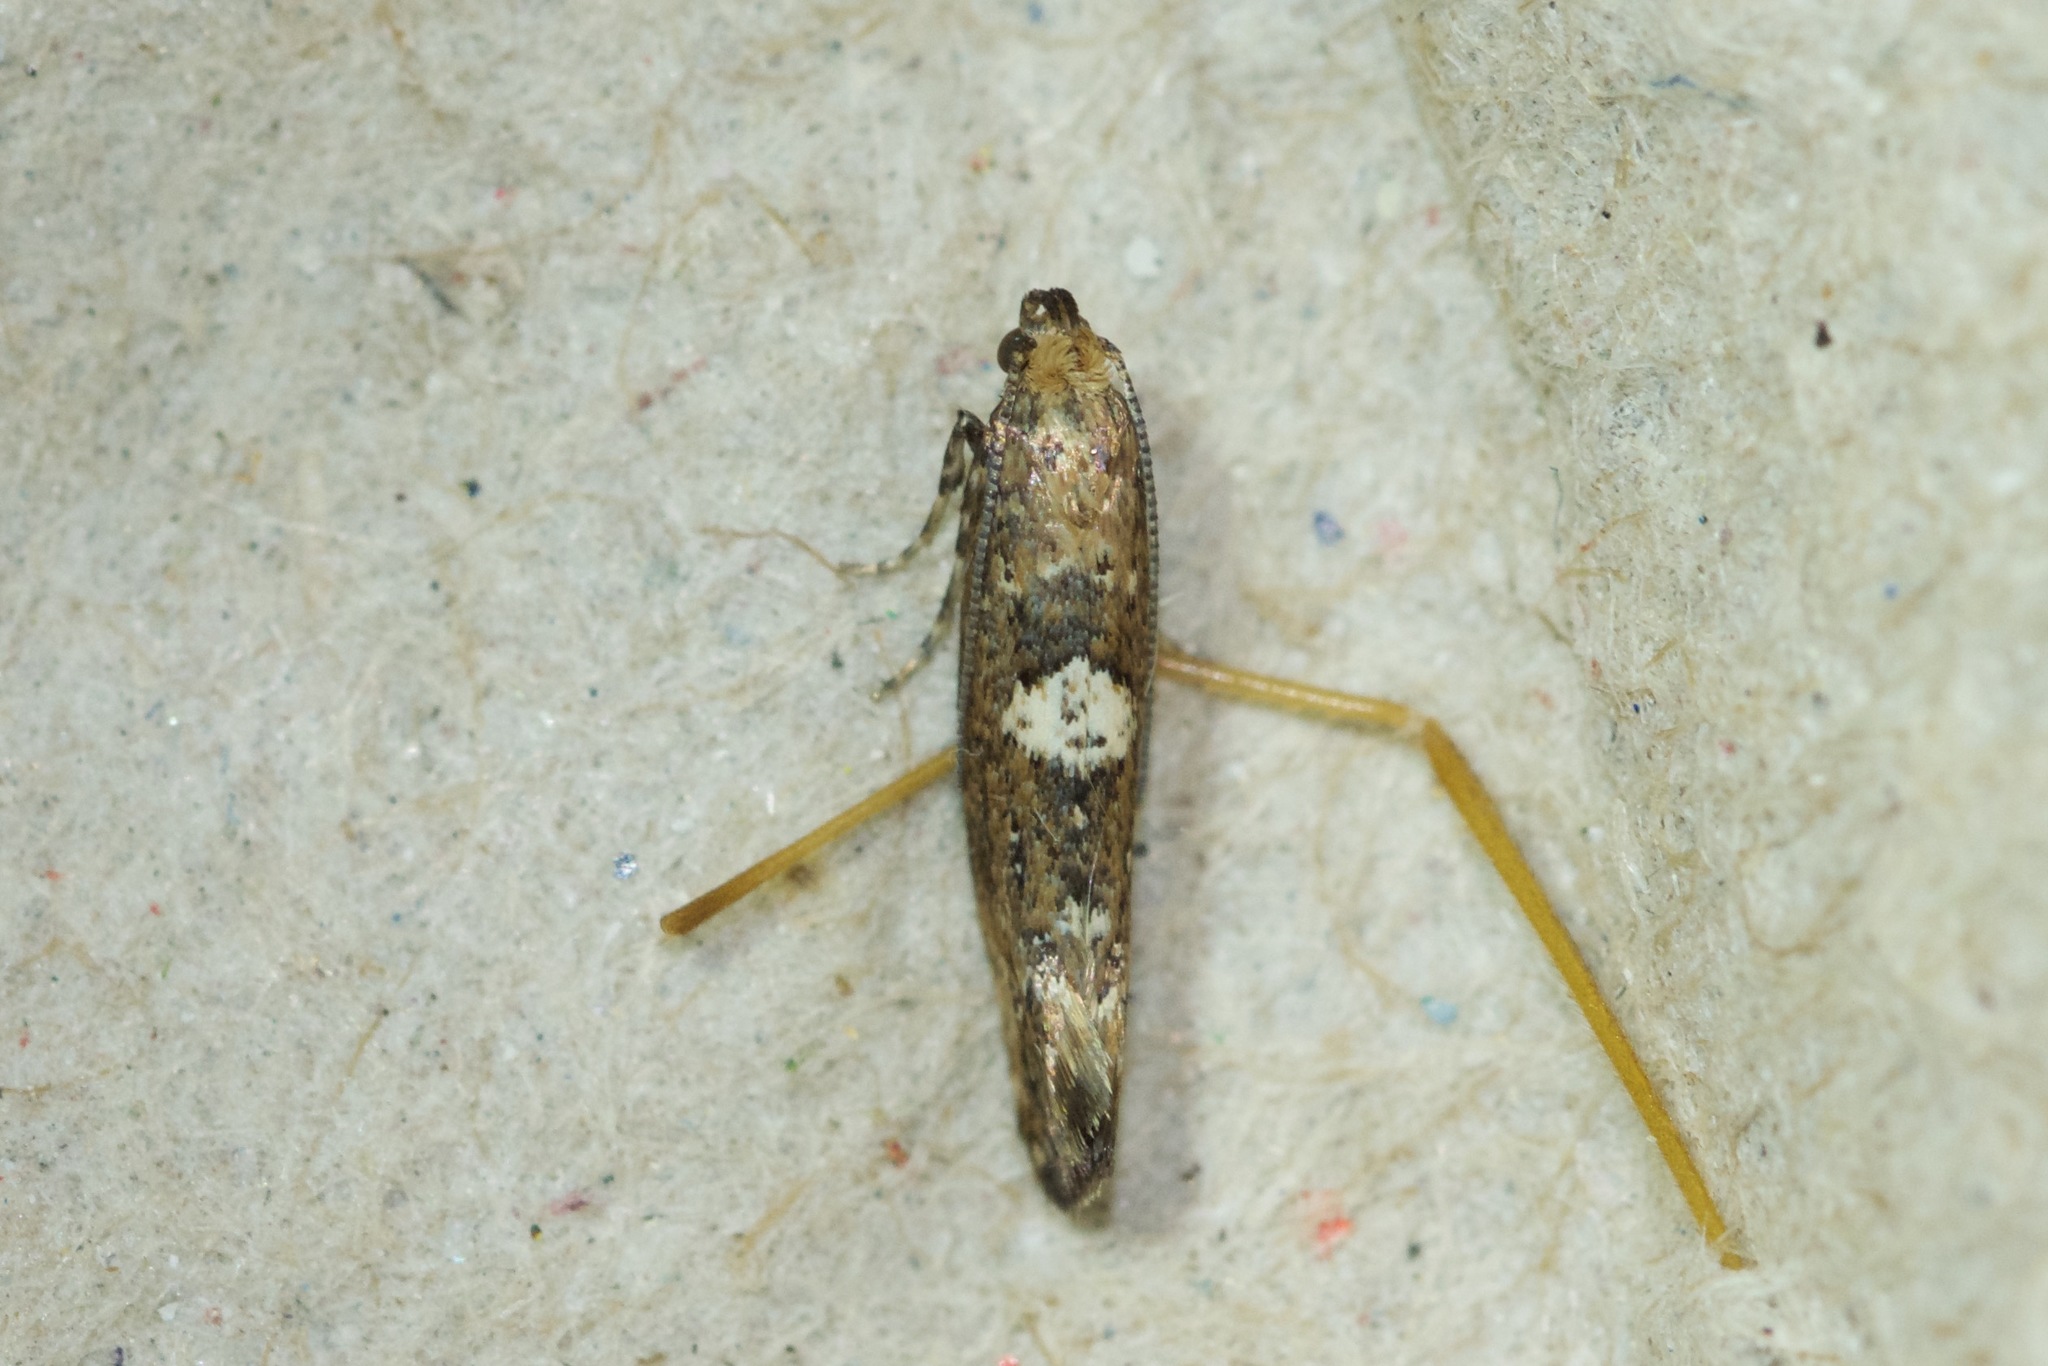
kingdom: Animalia
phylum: Arthropoda
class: Insecta
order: Lepidoptera
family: Glyphipterigidae
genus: Acrolepia
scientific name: Acrolepia assectella
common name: Onion leaf miner
